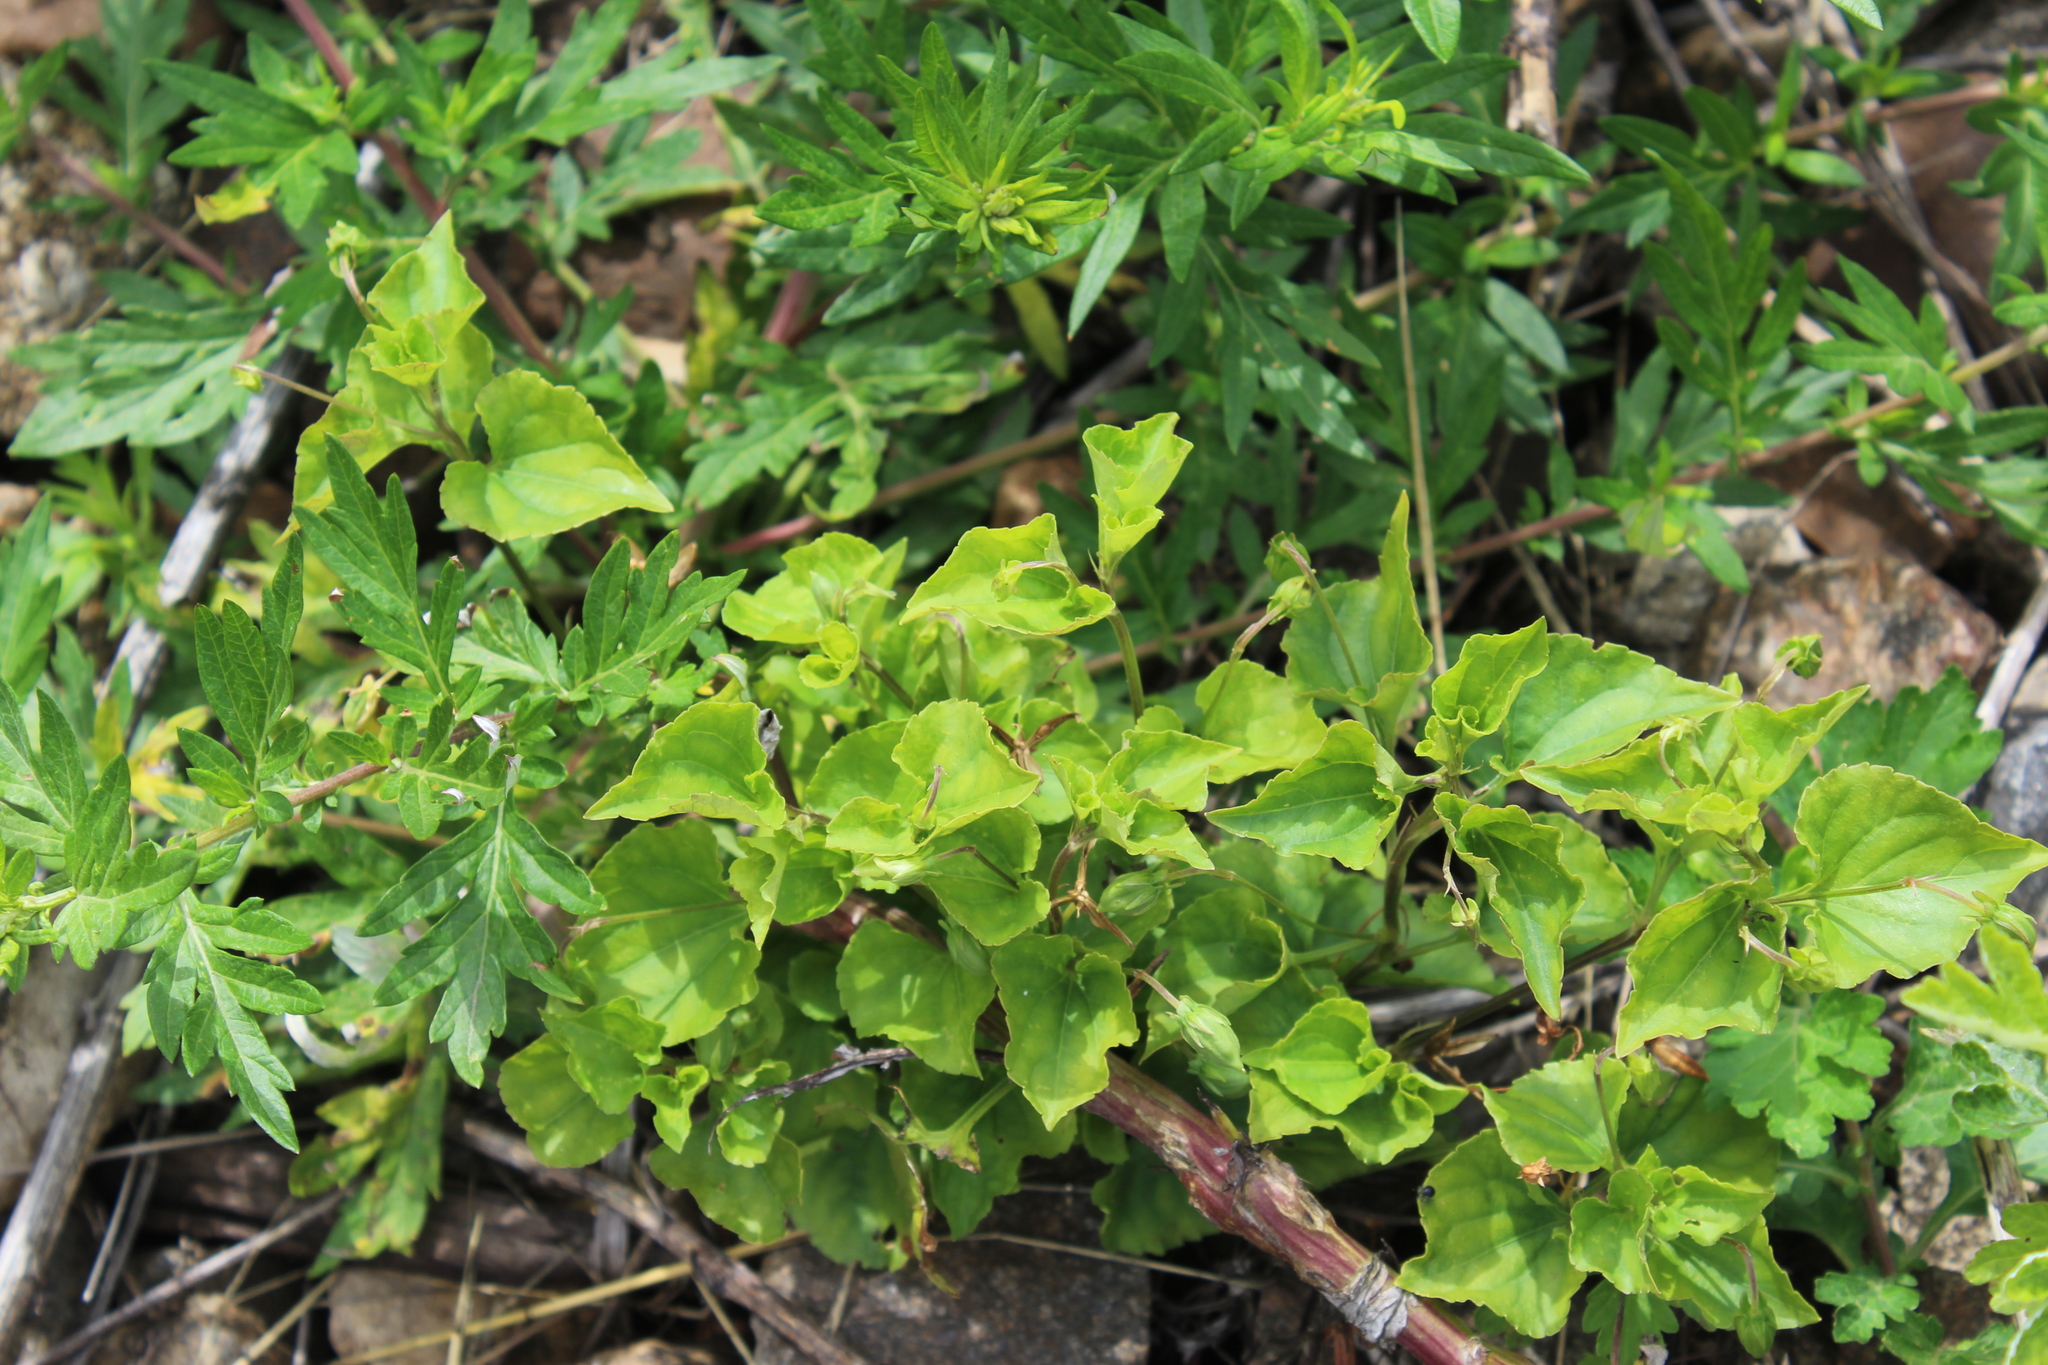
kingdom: Plantae
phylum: Tracheophyta
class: Magnoliopsida
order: Malpighiales
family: Violaceae
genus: Viola
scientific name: Viola riviniana
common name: Common dog-violet
